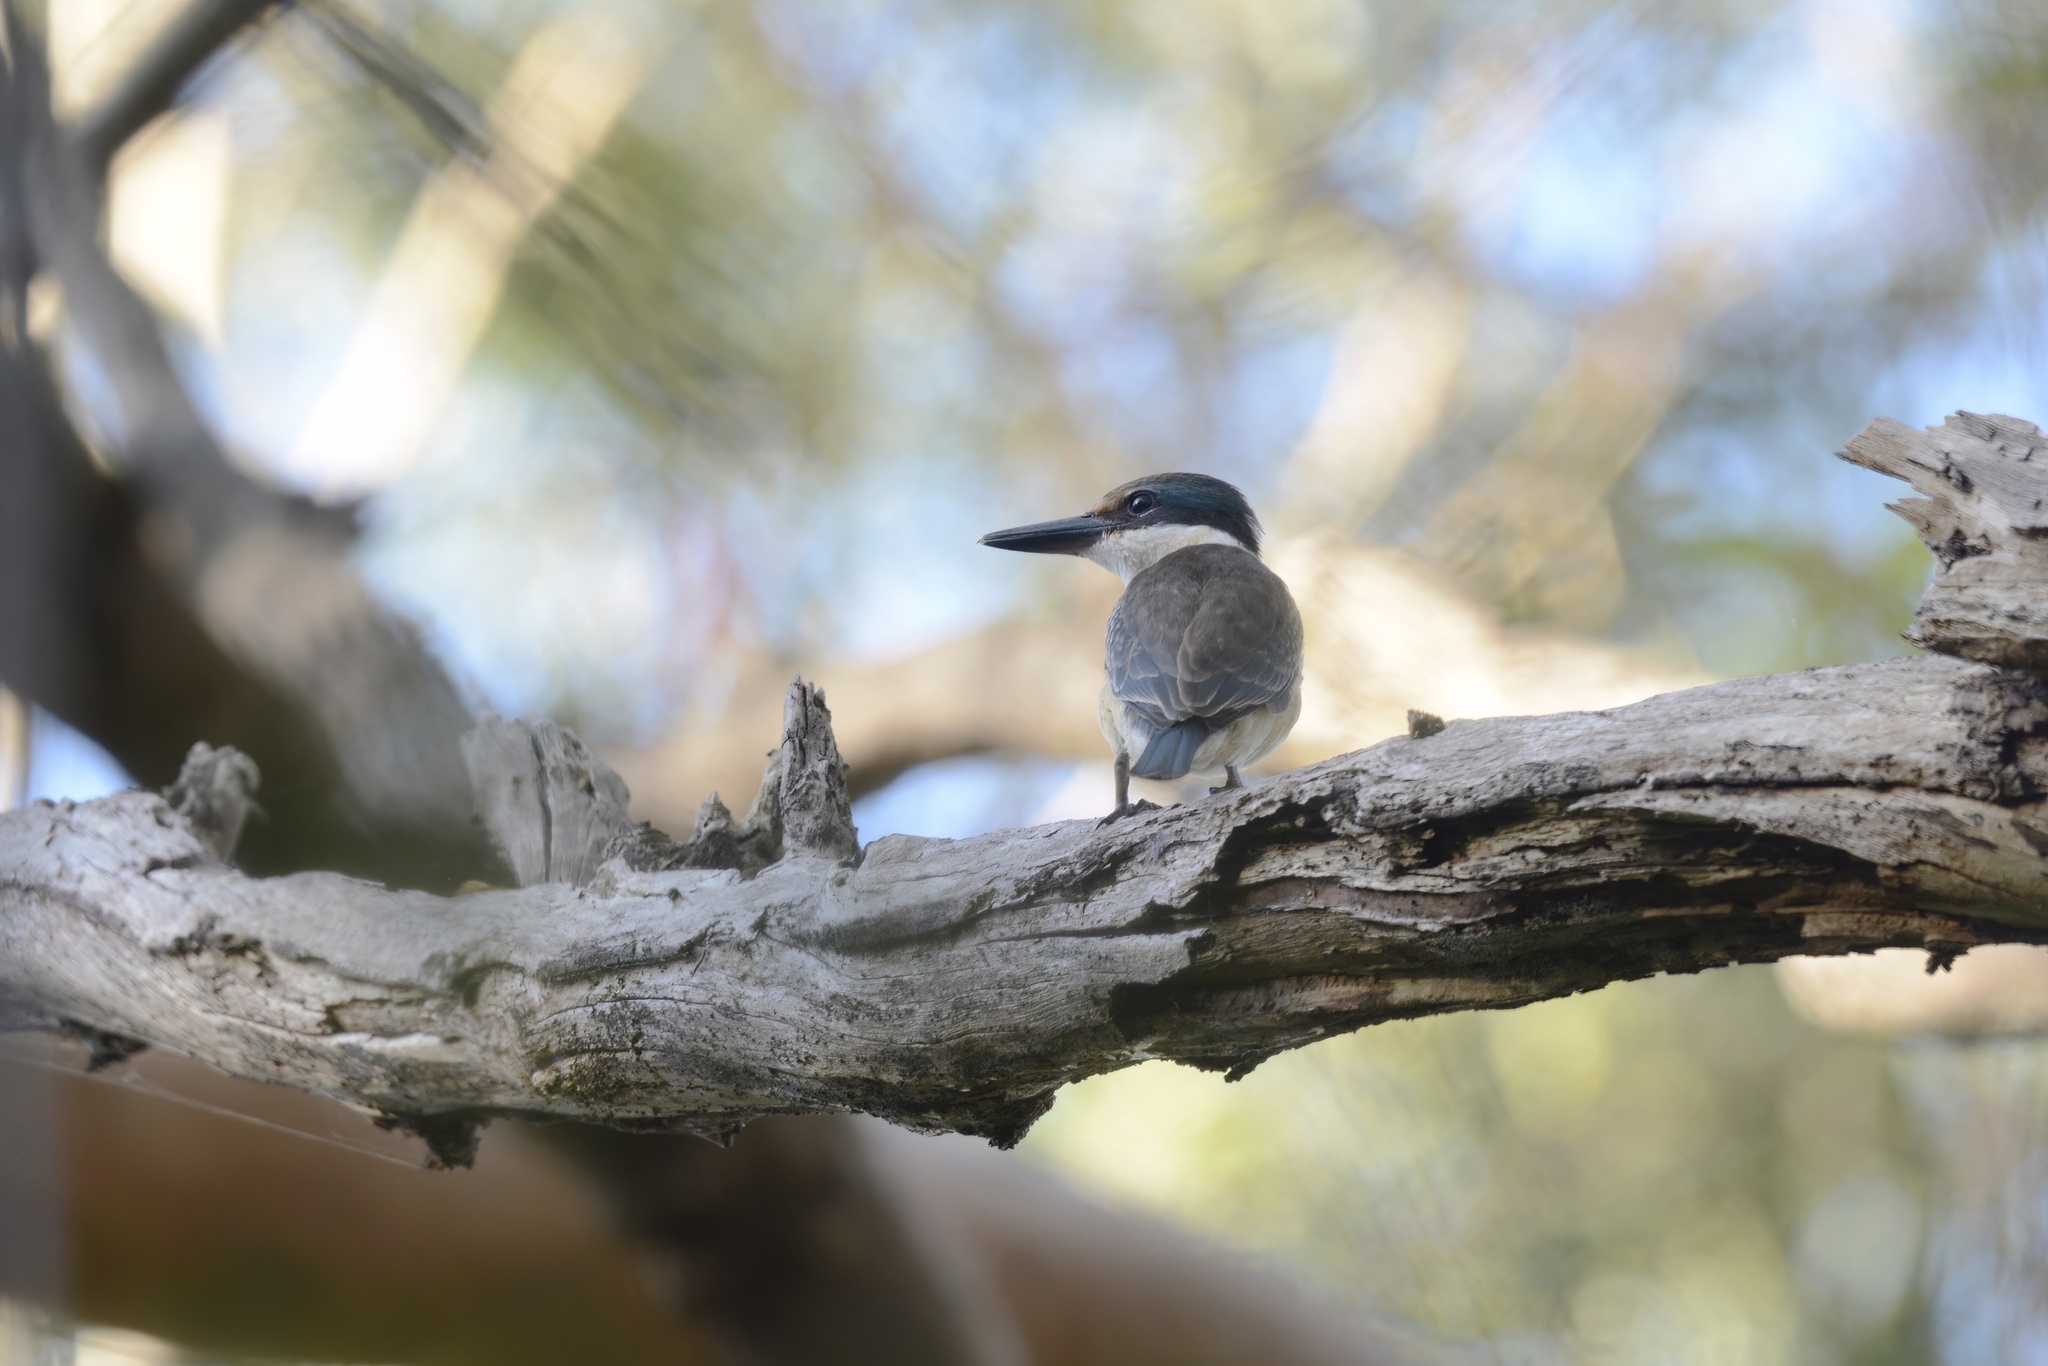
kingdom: Animalia
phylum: Chordata
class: Aves
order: Coraciiformes
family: Alcedinidae
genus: Todiramphus
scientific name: Todiramphus sanctus
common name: Sacred kingfisher
